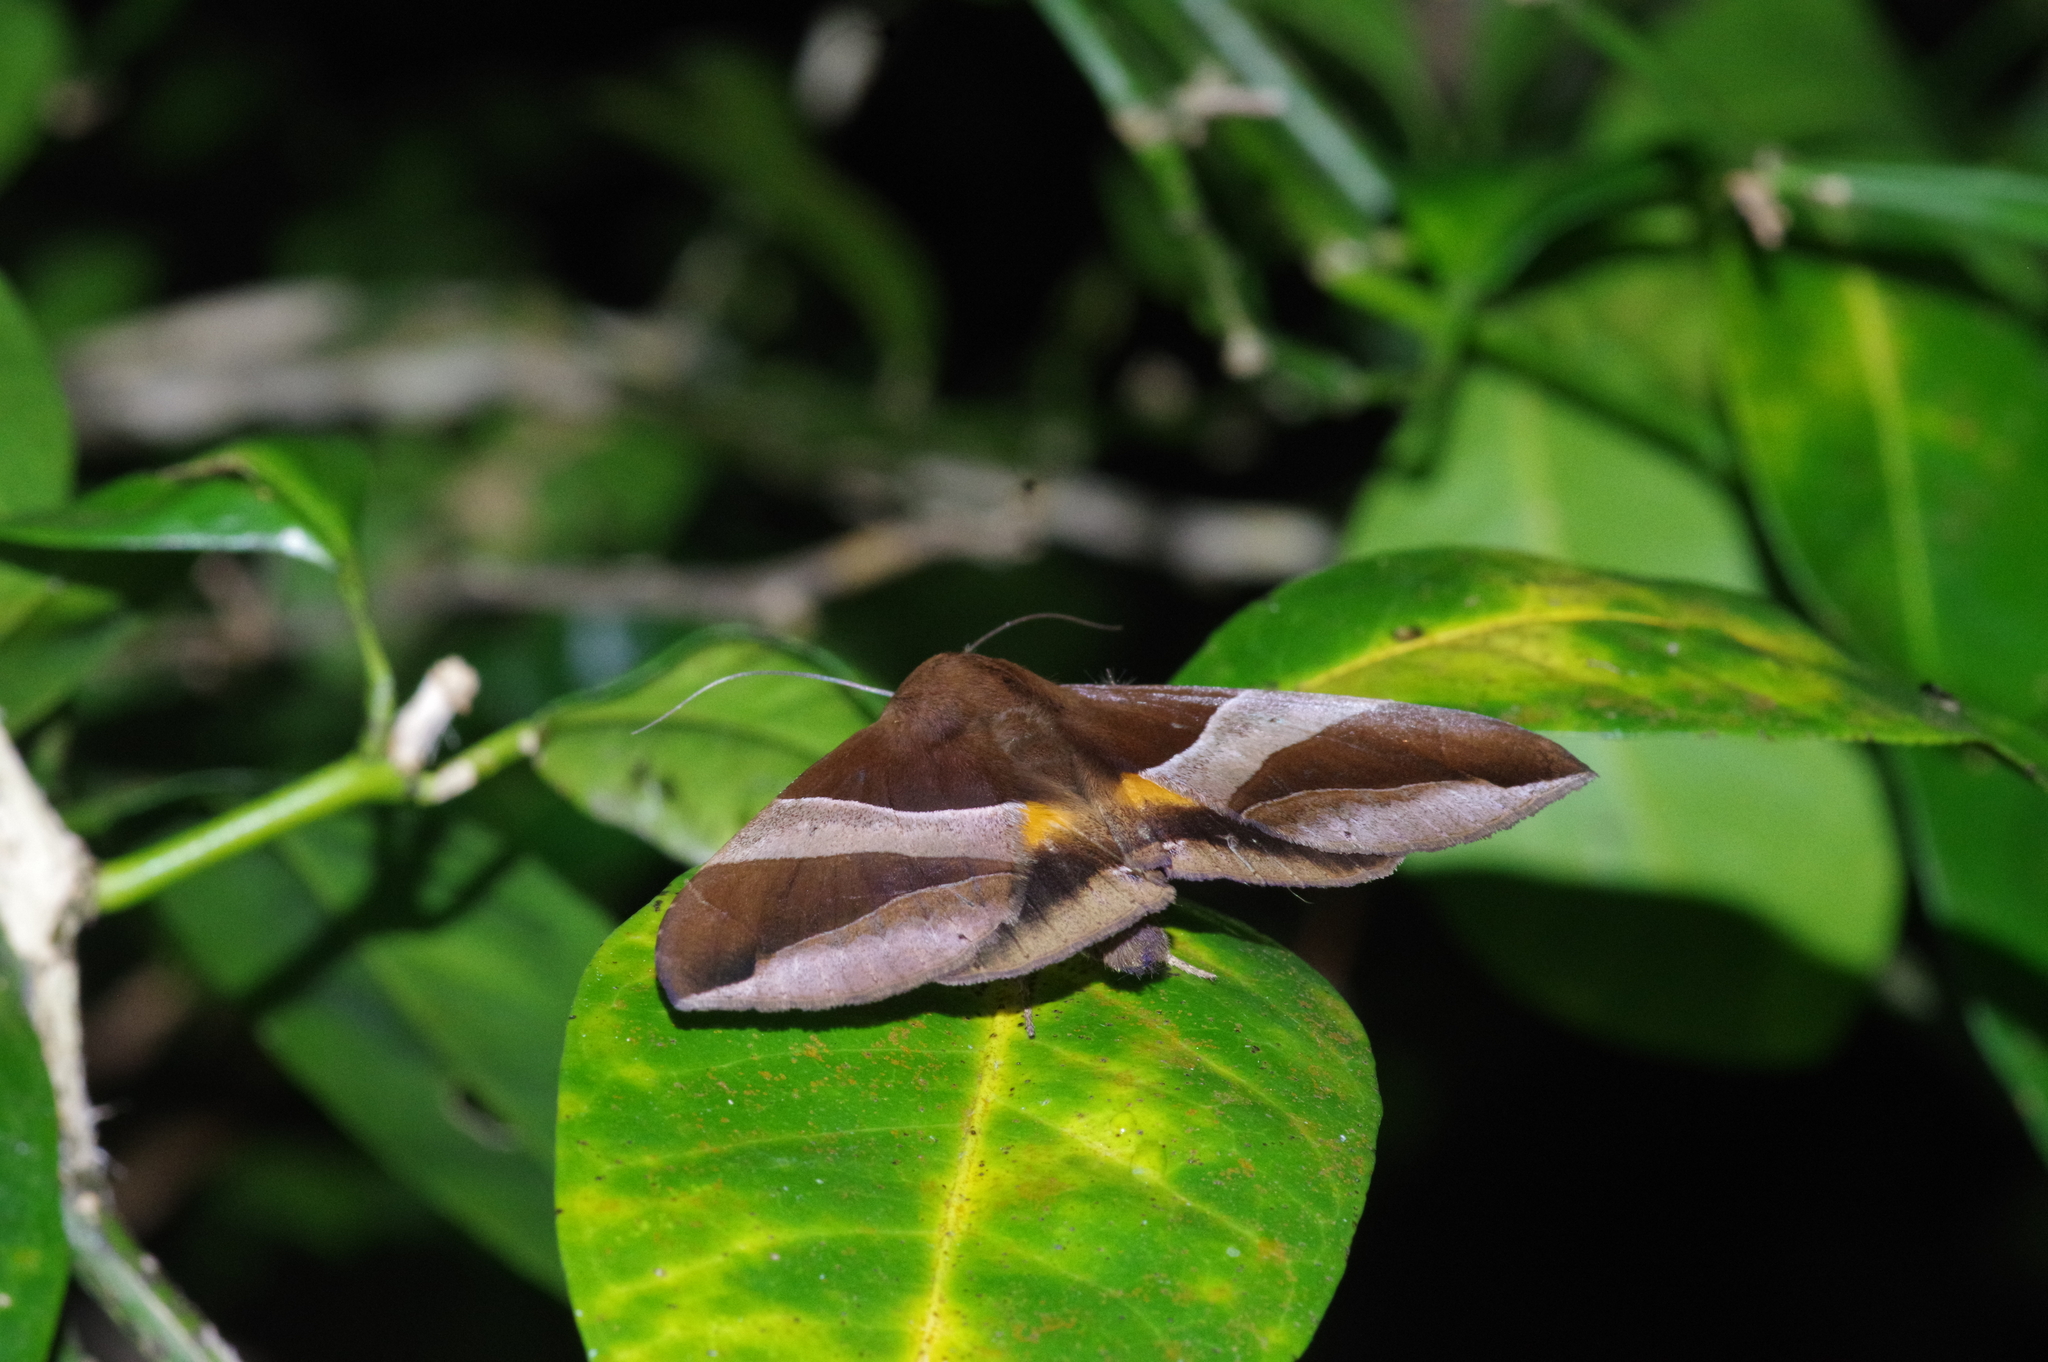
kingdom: Animalia
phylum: Arthropoda
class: Insecta
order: Lepidoptera
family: Erebidae
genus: Bastilla
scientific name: Bastilla fulvotaenia
